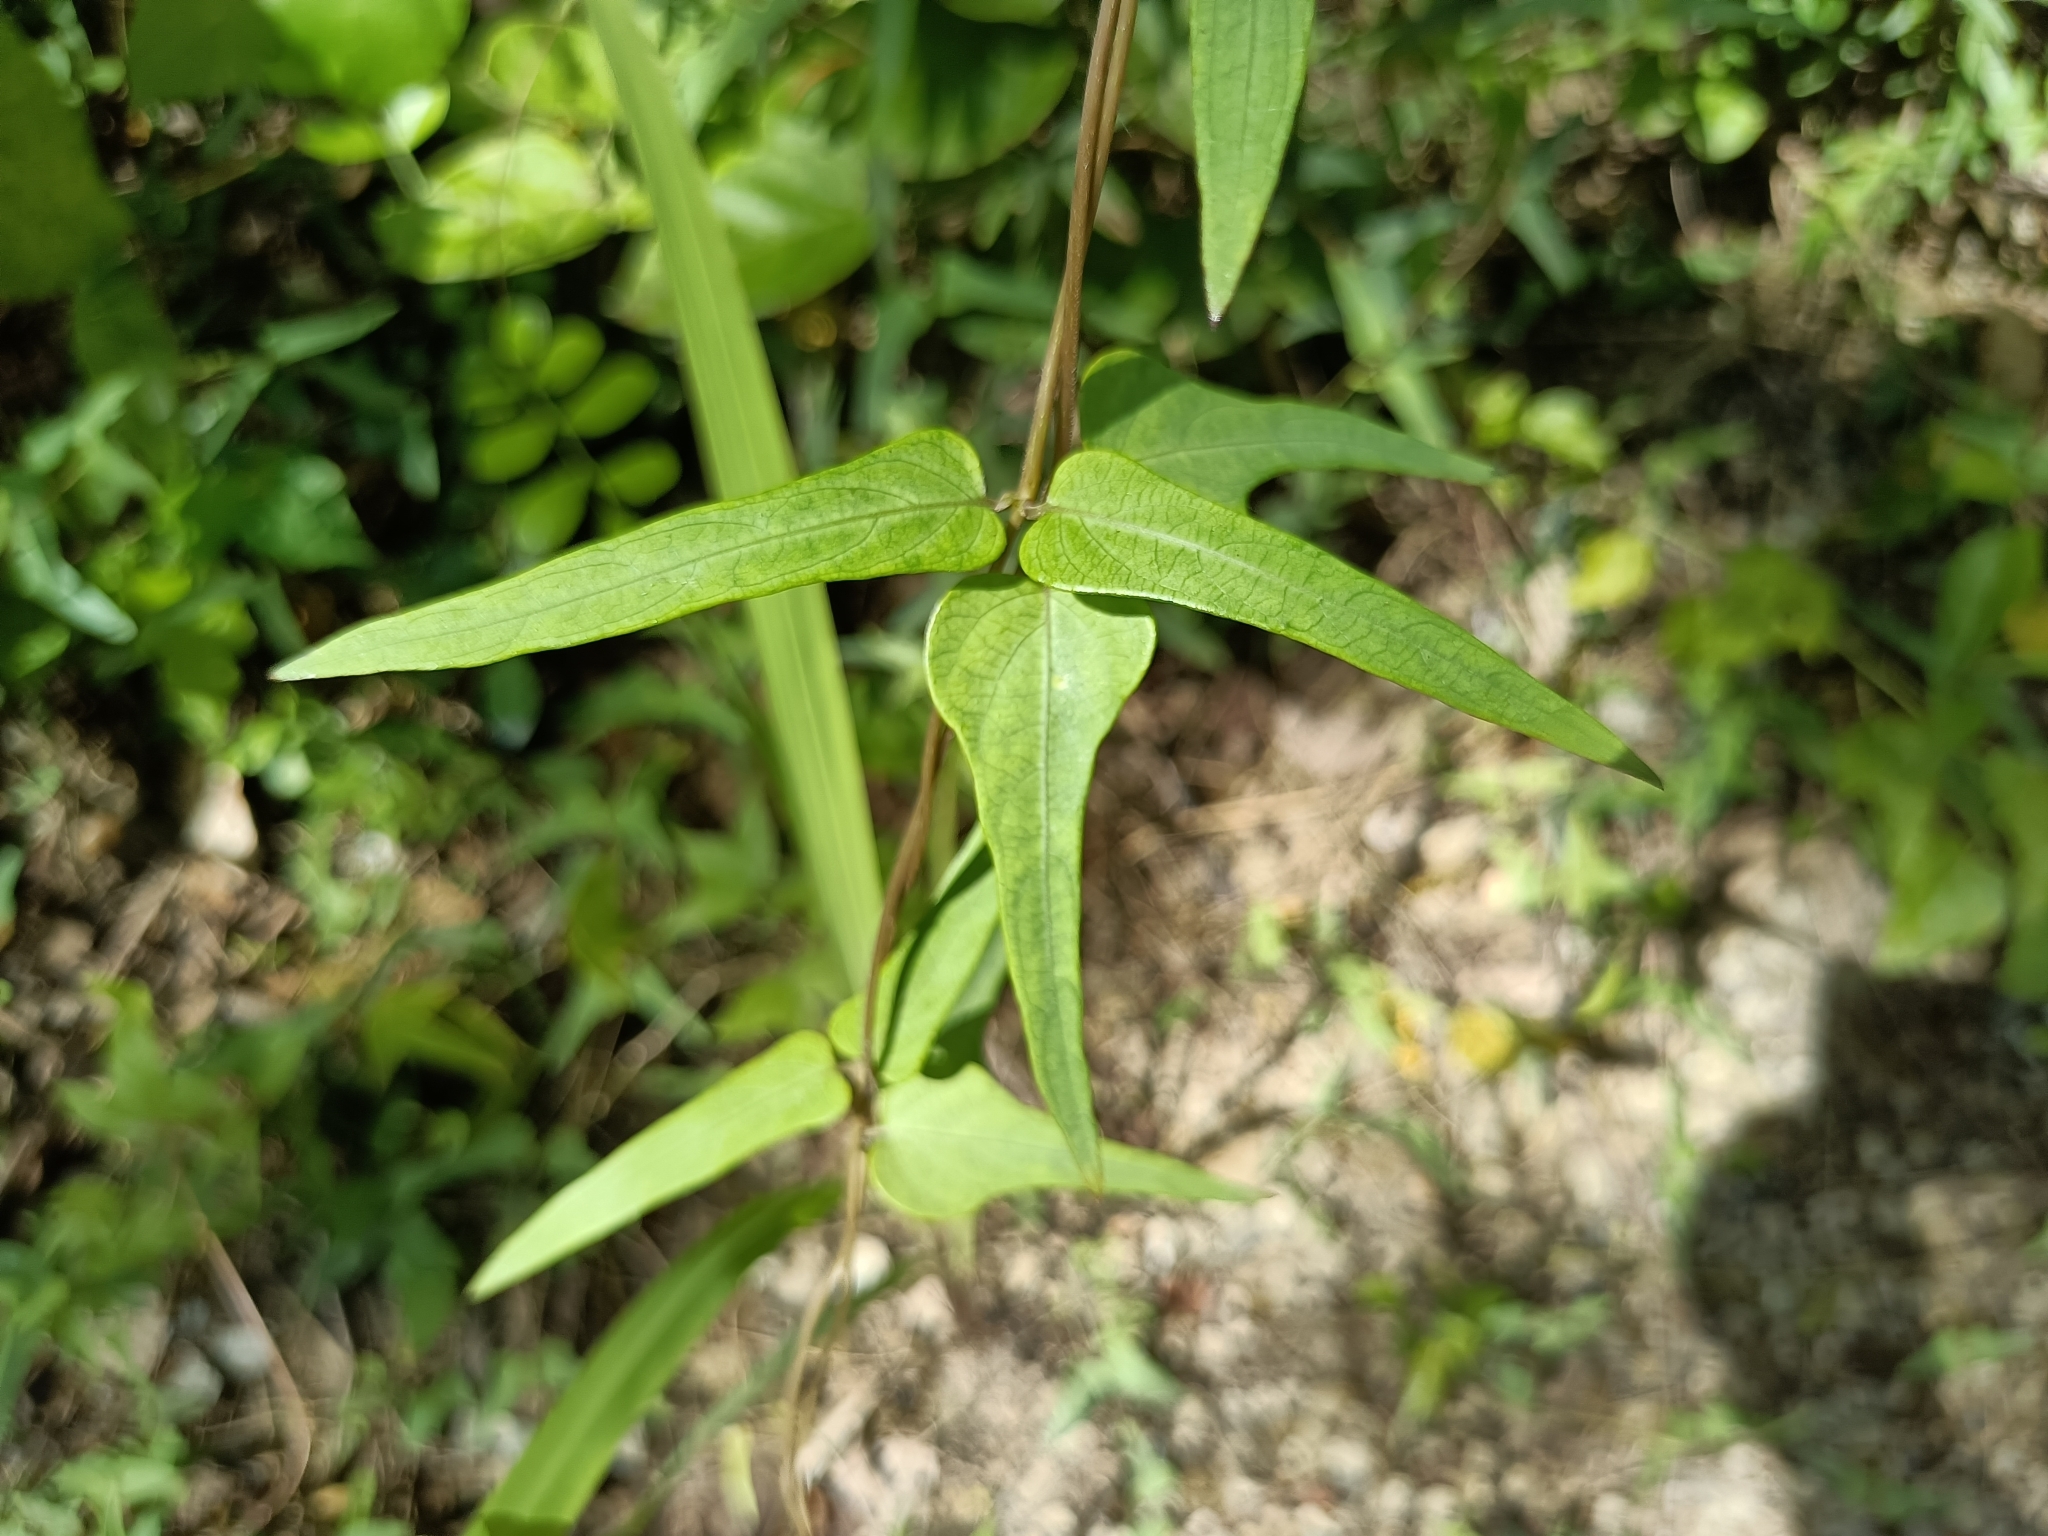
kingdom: Plantae
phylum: Tracheophyta
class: Magnoliopsida
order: Gentianales
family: Rubiaceae
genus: Paederia
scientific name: Paederia foetida
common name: Stinkvine
